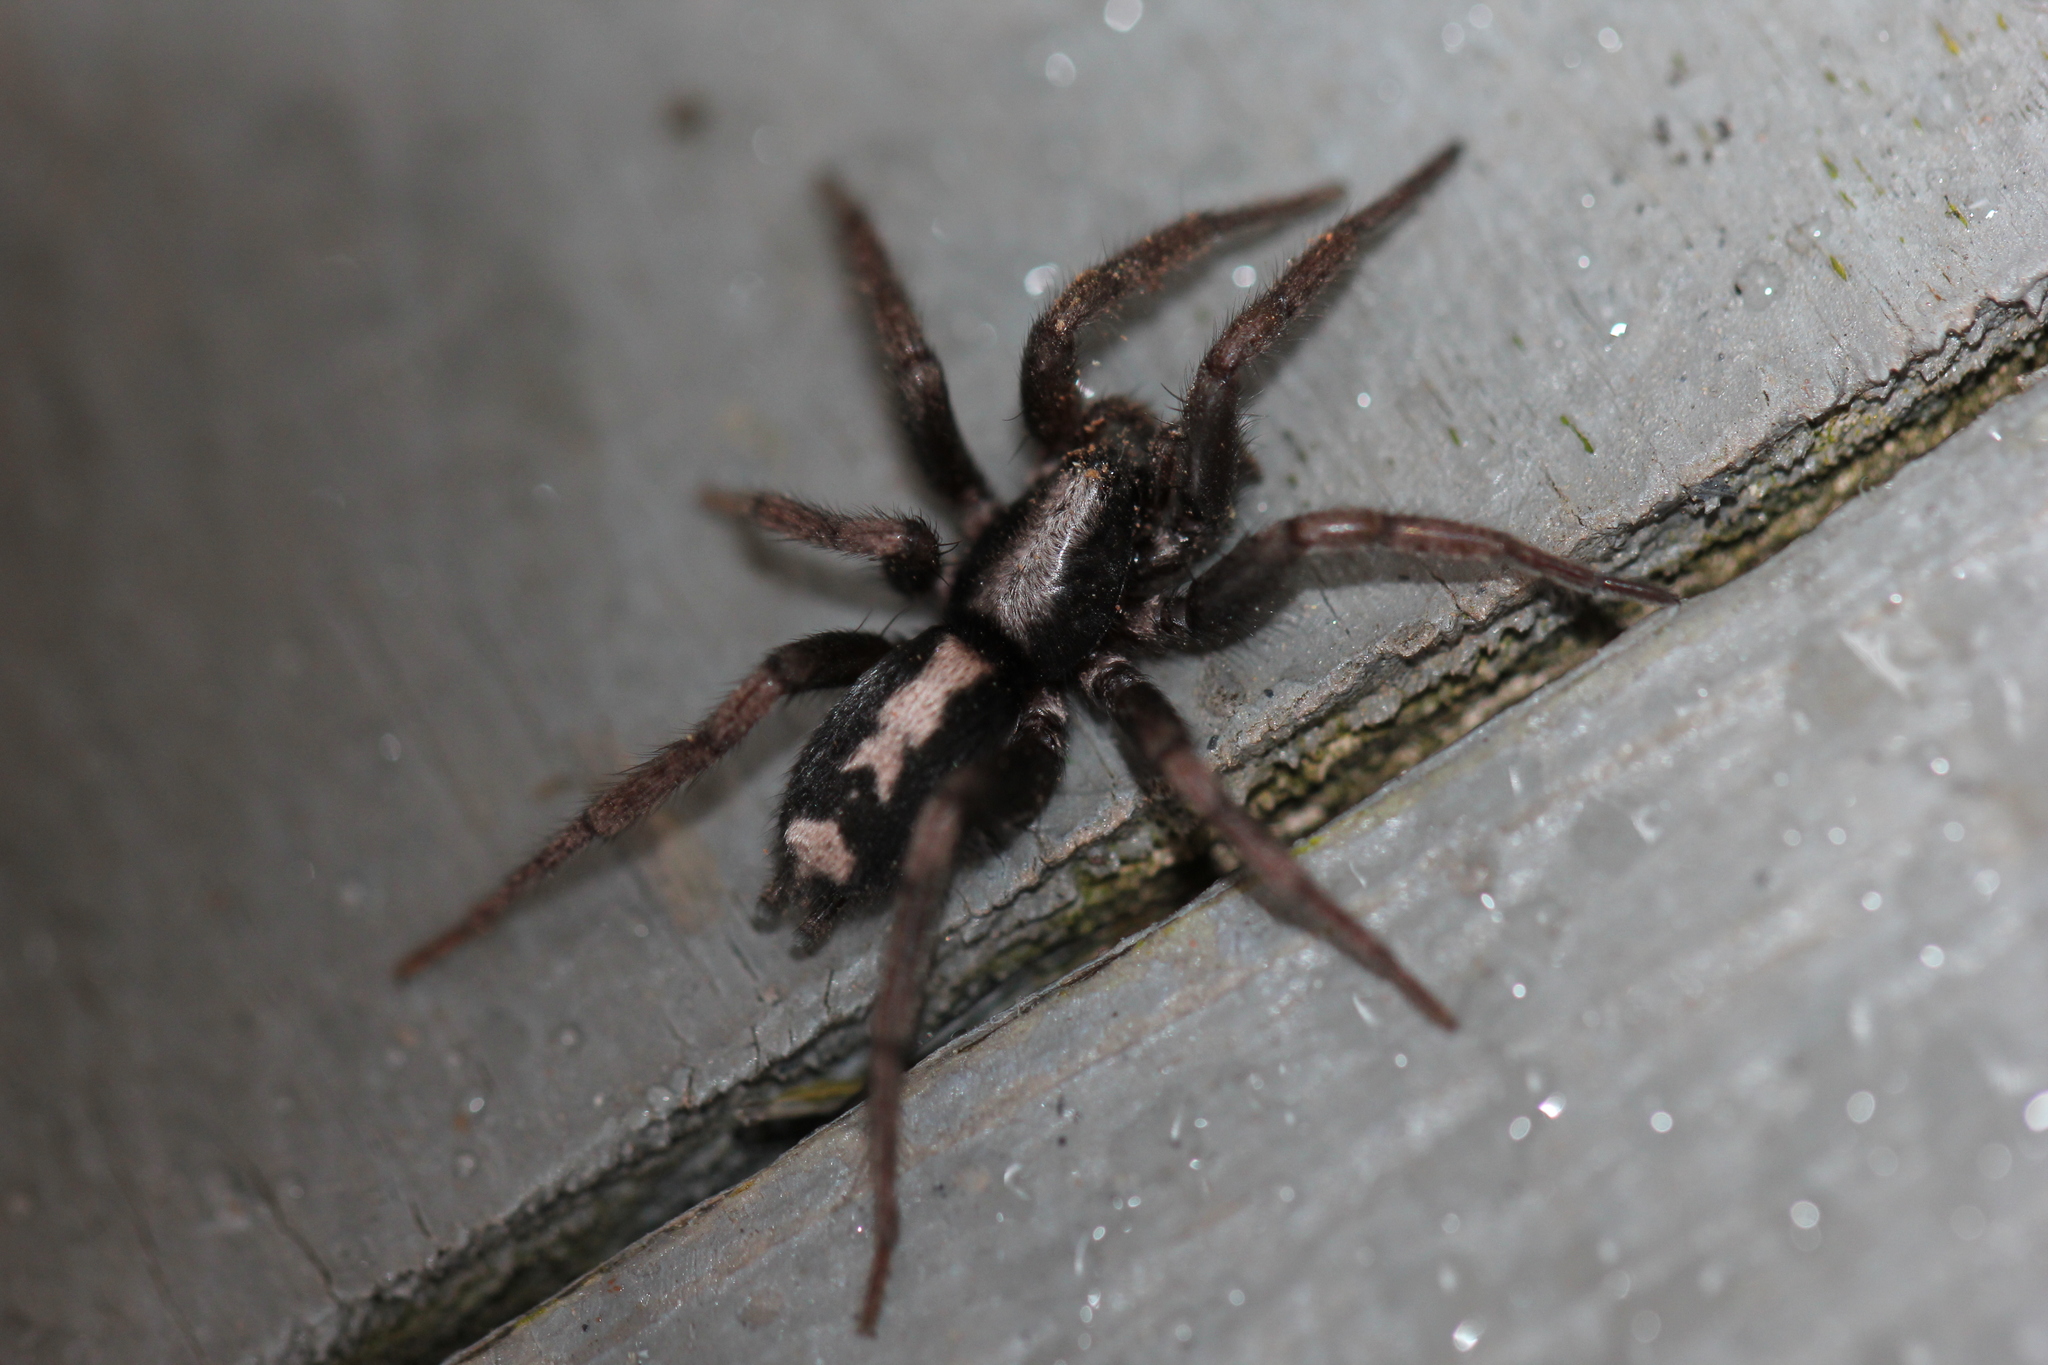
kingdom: Animalia
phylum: Arthropoda
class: Arachnida
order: Araneae
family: Gnaphosidae
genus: Herpyllus
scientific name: Herpyllus ecclesiasticus
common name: Eastern parson spider
